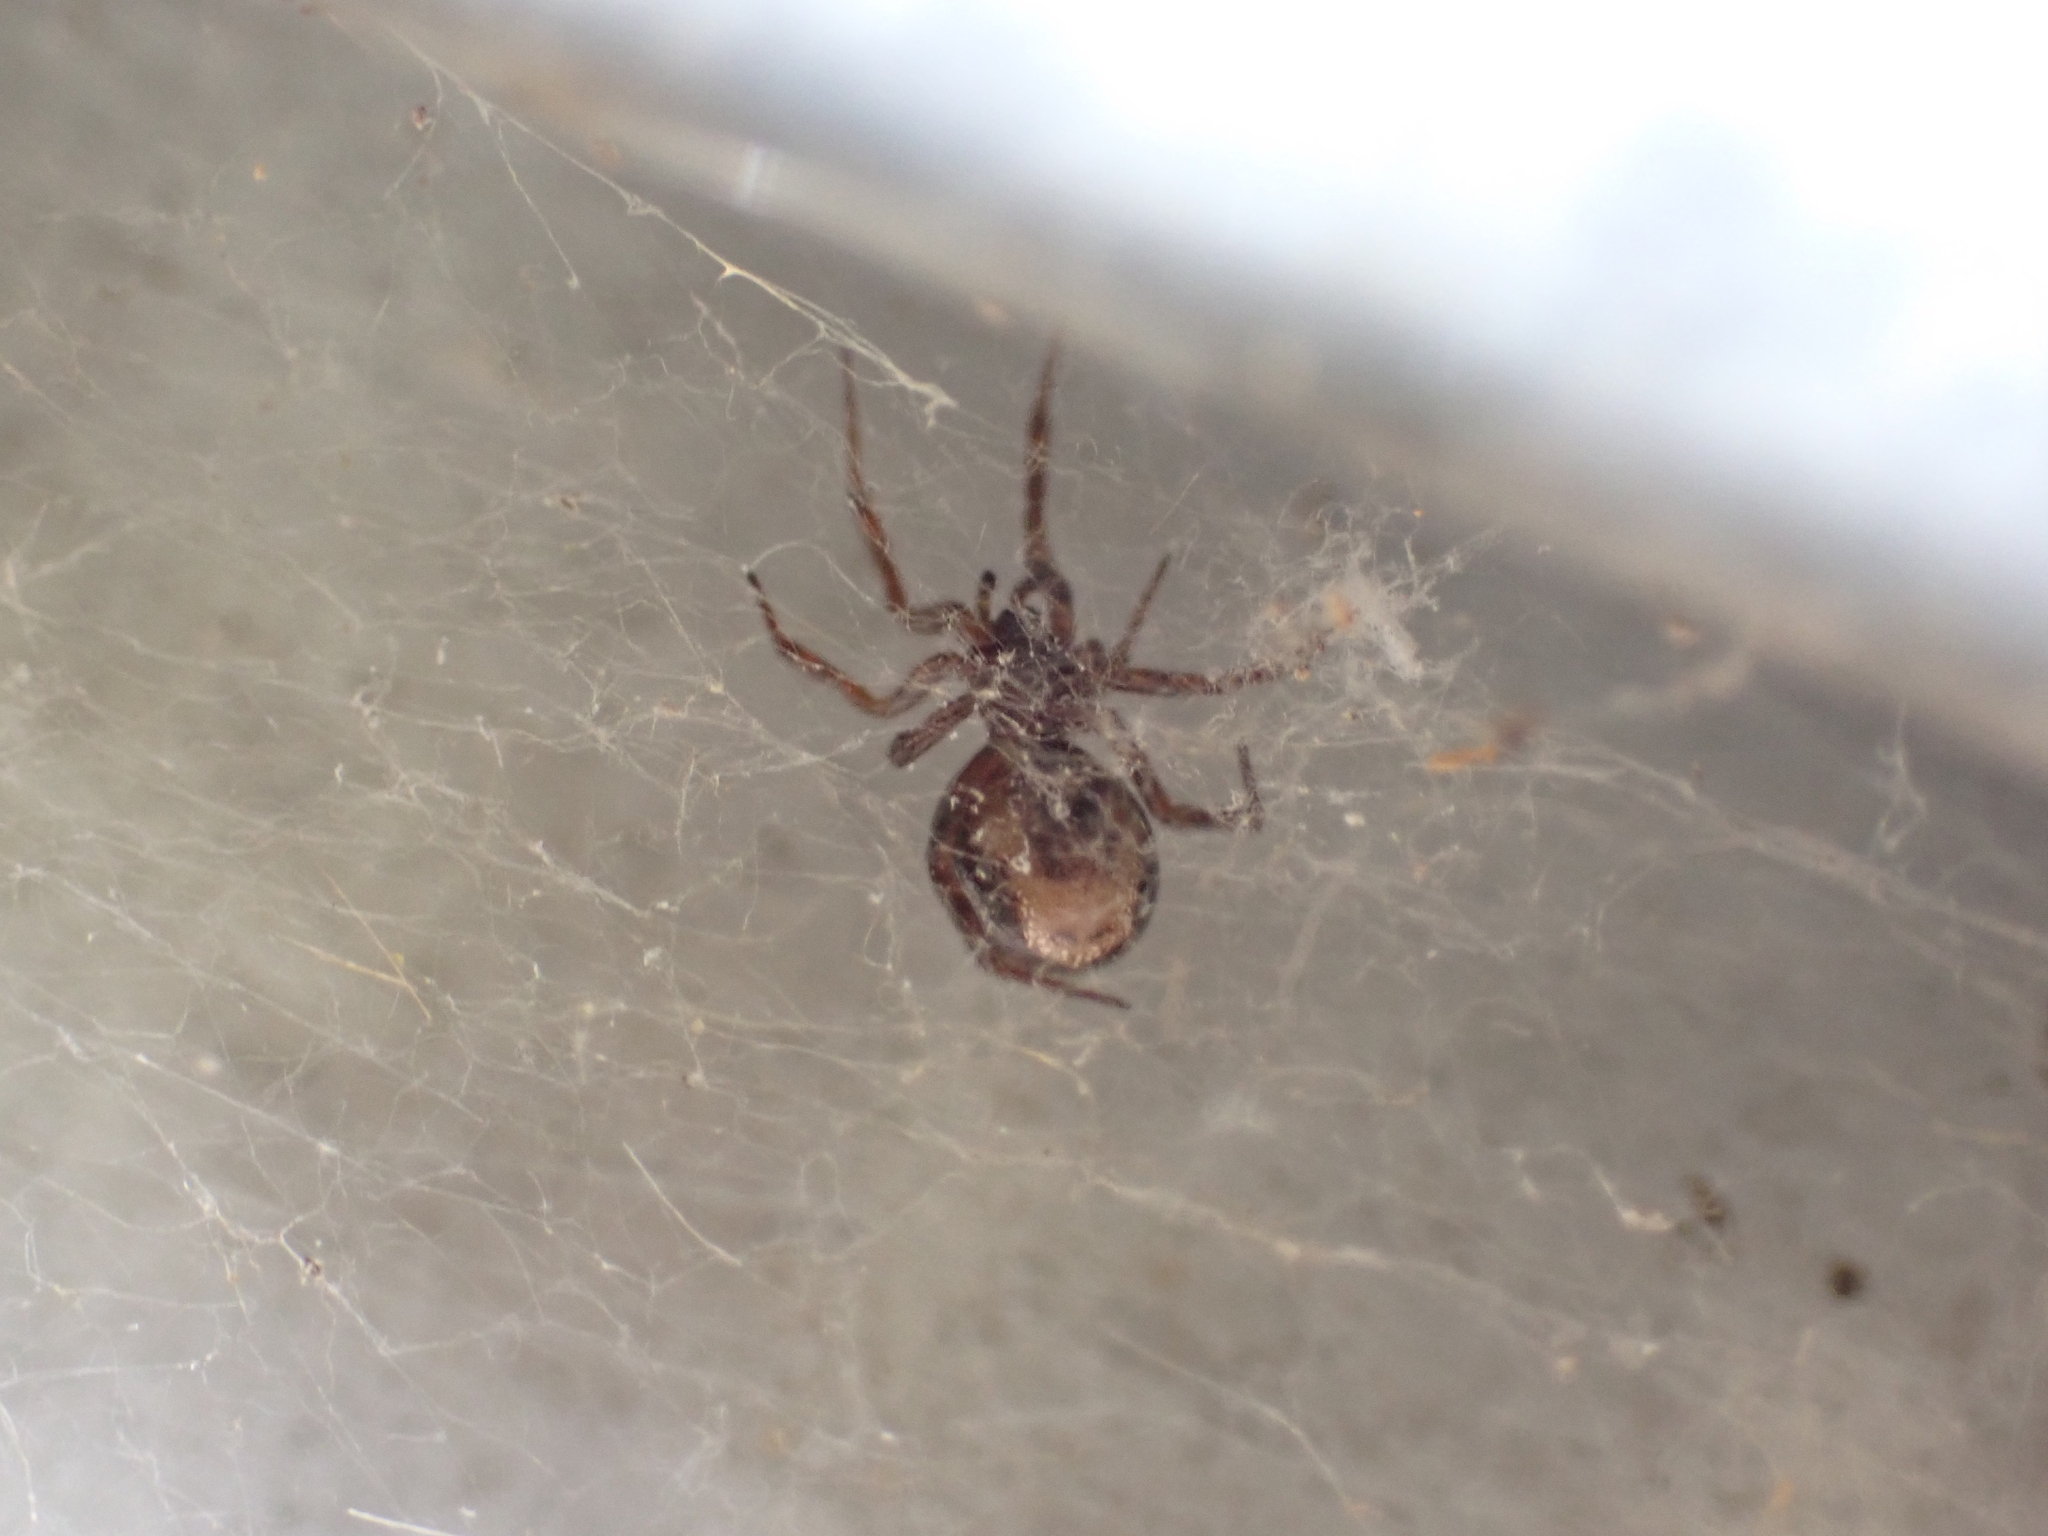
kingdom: Animalia
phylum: Arthropoda
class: Arachnida
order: Araneae
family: Theridiidae
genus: Steatoda
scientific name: Steatoda bipunctata
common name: False widow
